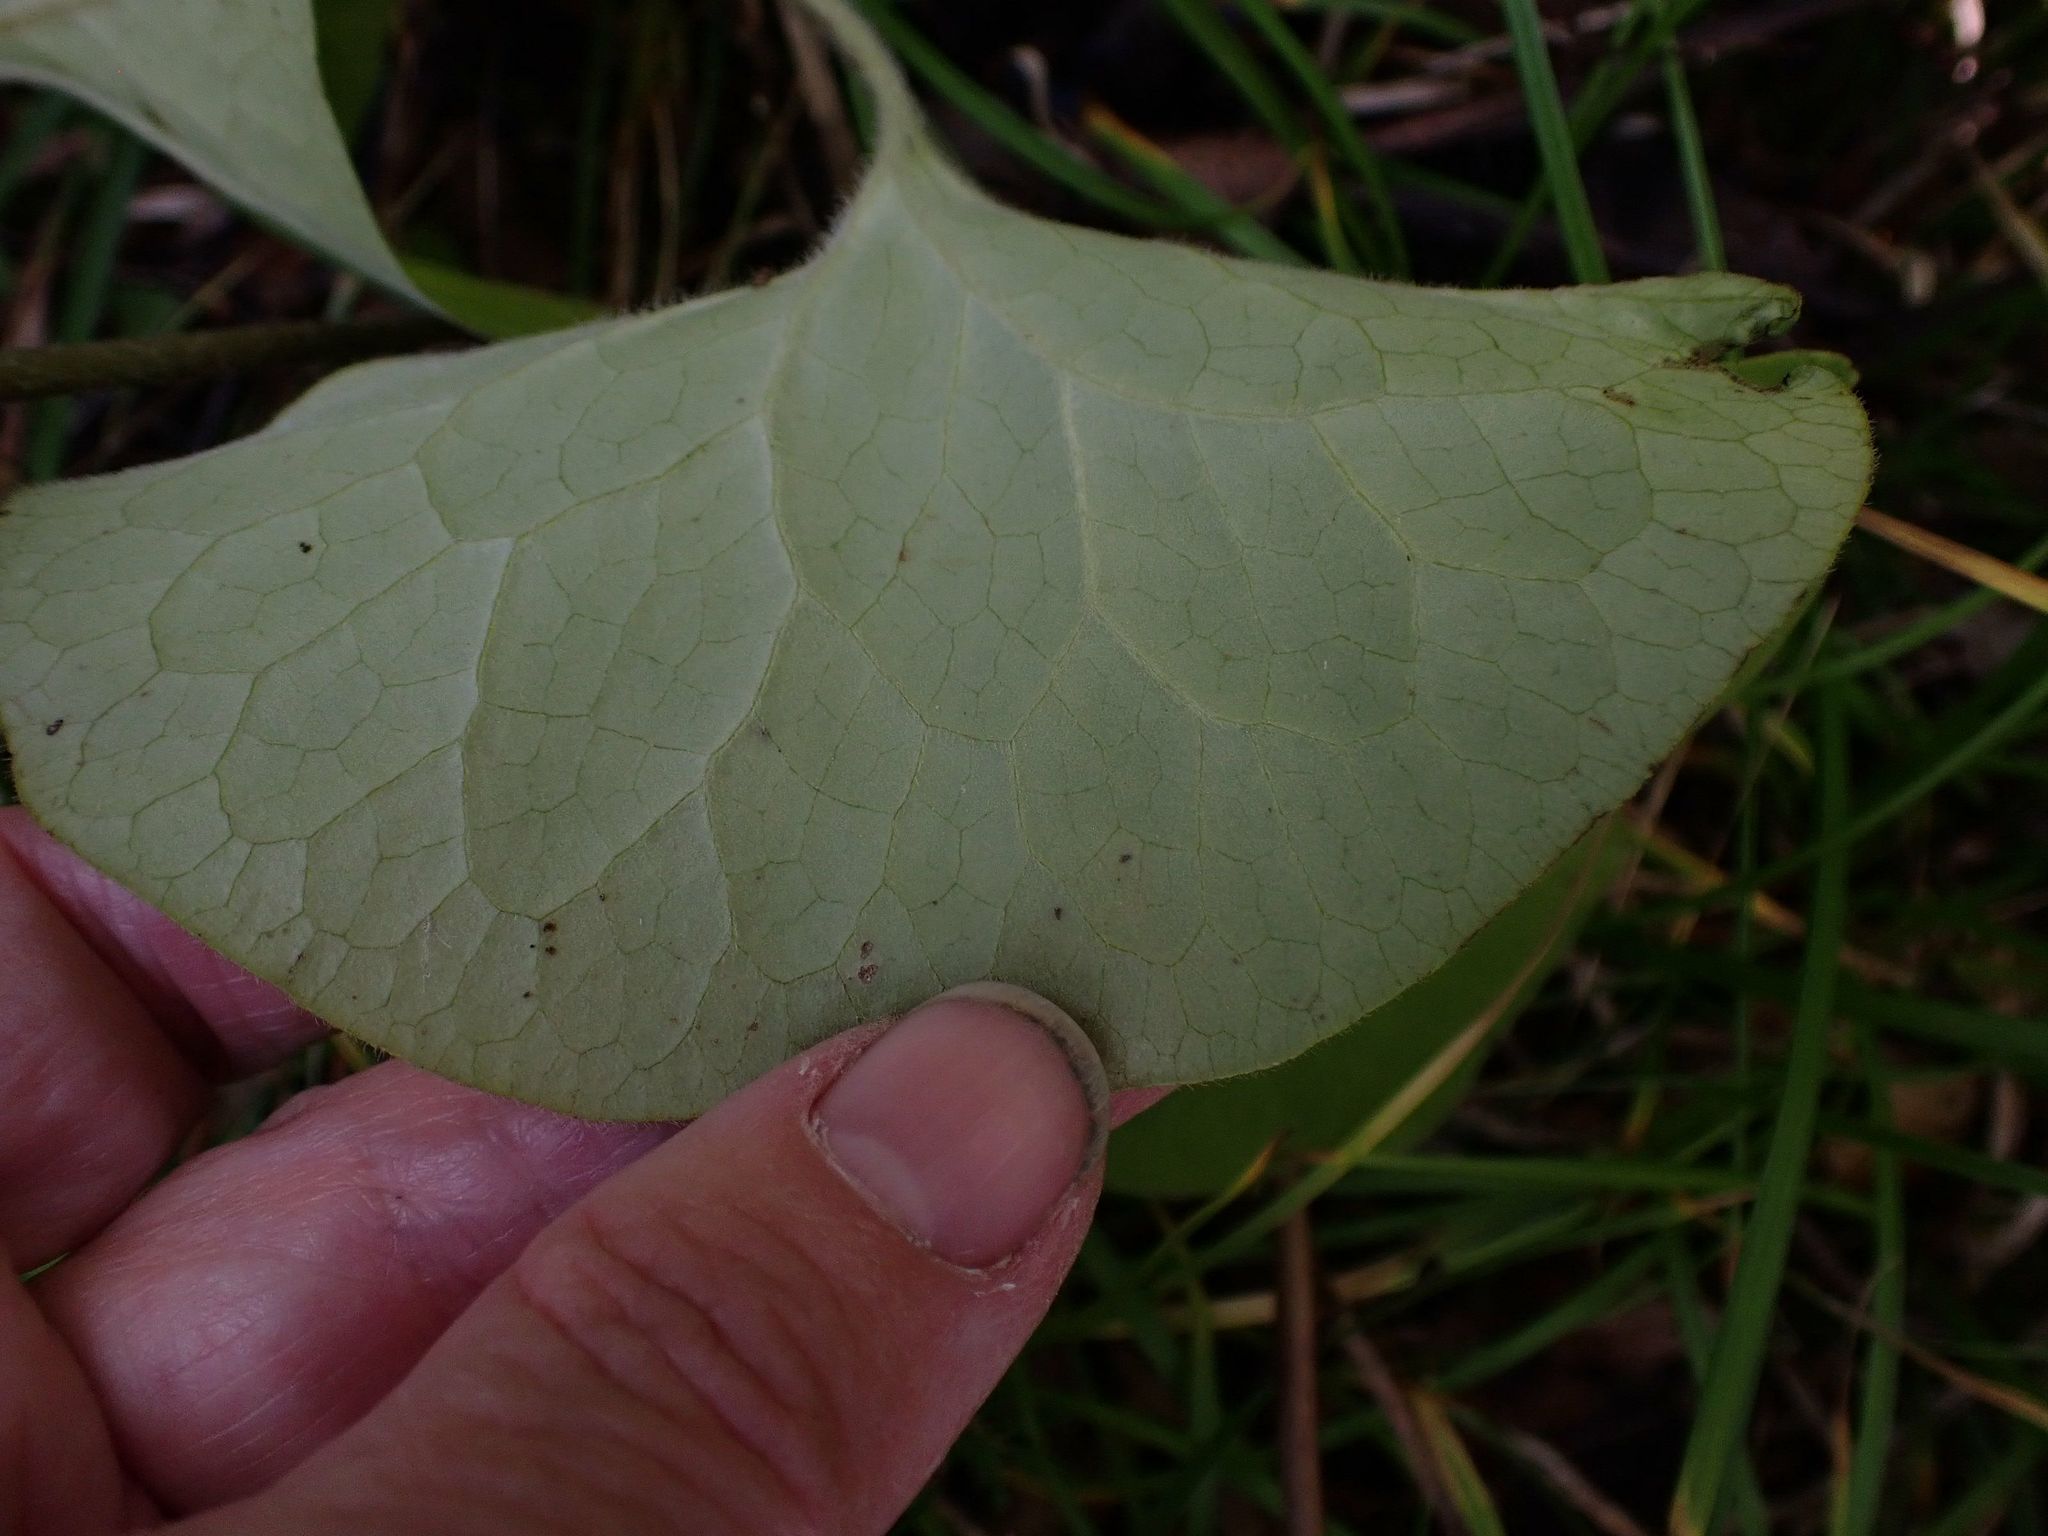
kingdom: Plantae
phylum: Tracheophyta
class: Magnoliopsida
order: Piperales
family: Aristolochiaceae
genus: Asarum
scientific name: Asarum canadense
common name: Wild ginger
